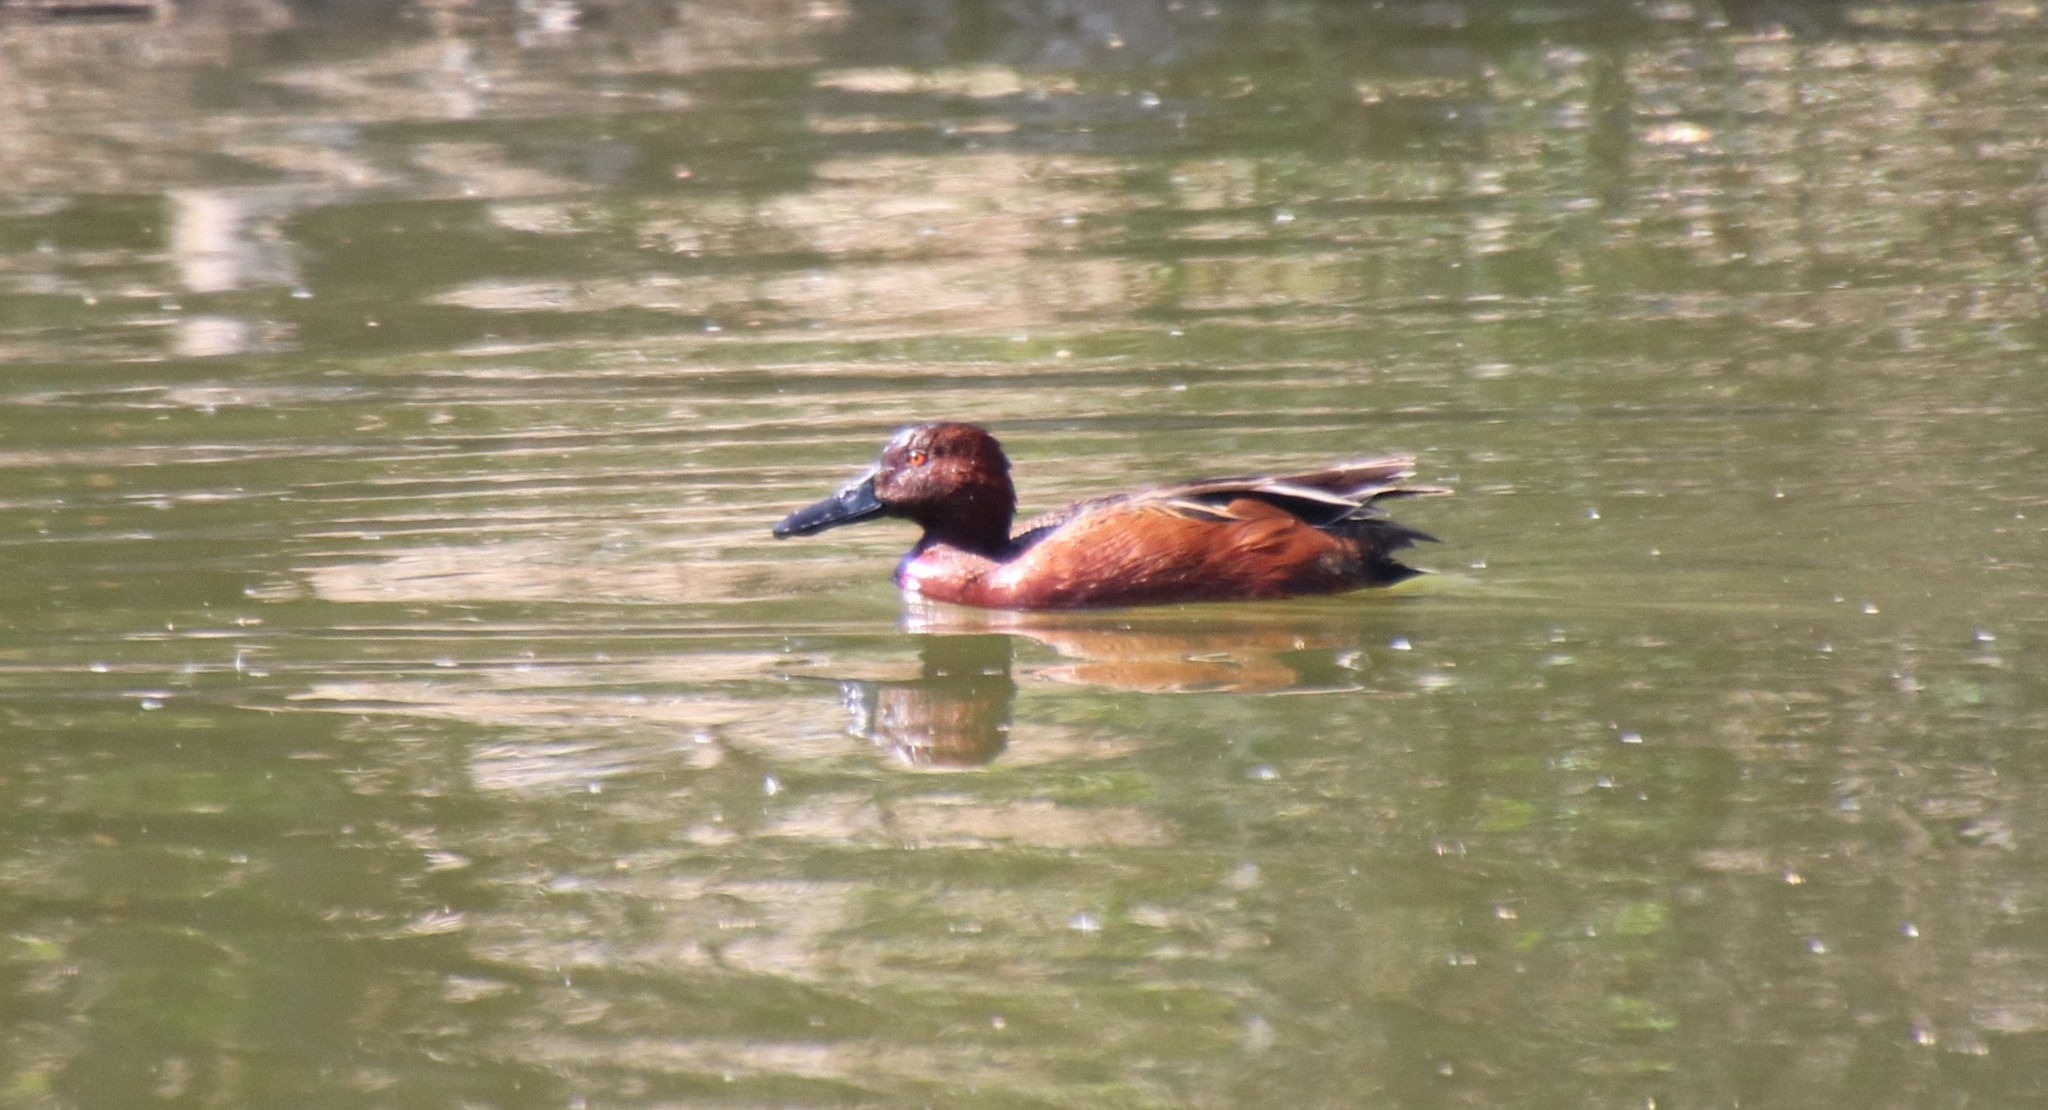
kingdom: Animalia
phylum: Chordata
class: Aves
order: Anseriformes
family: Anatidae
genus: Spatula
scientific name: Spatula cyanoptera
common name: Cinnamon teal
